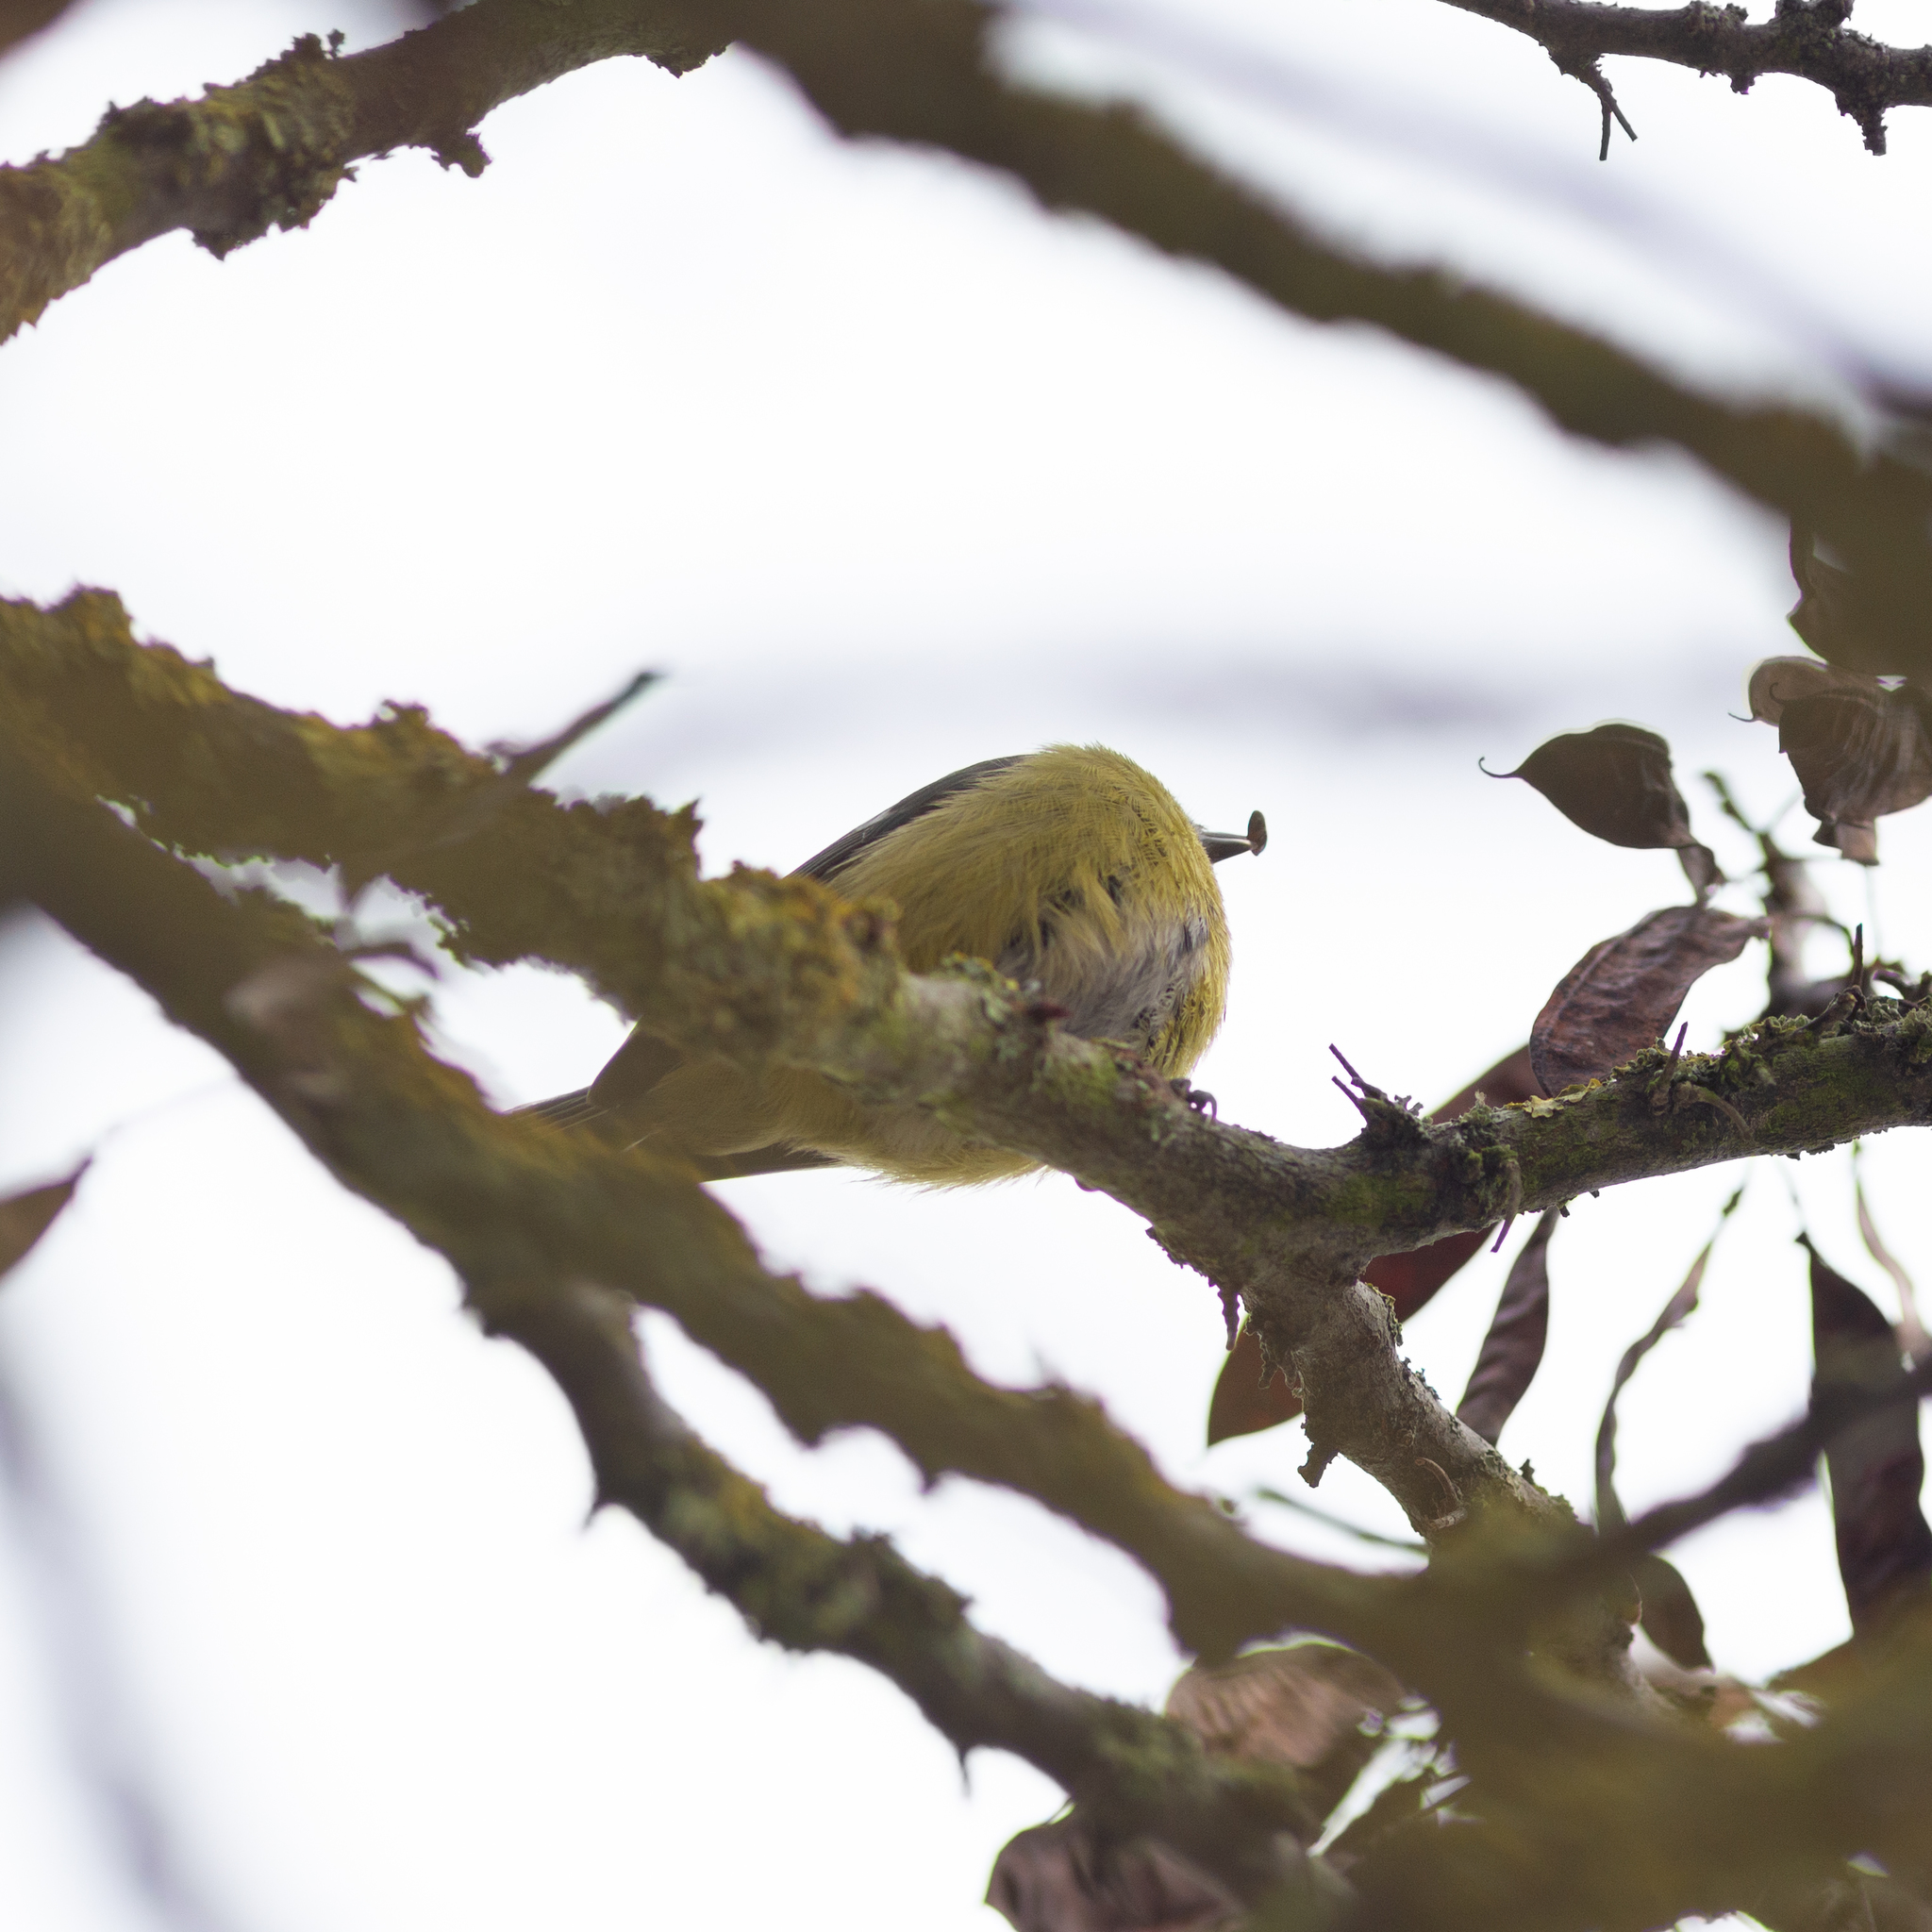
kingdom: Animalia
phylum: Chordata
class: Aves
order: Passeriformes
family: Paridae
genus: Cyanistes
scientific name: Cyanistes caeruleus
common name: Eurasian blue tit
